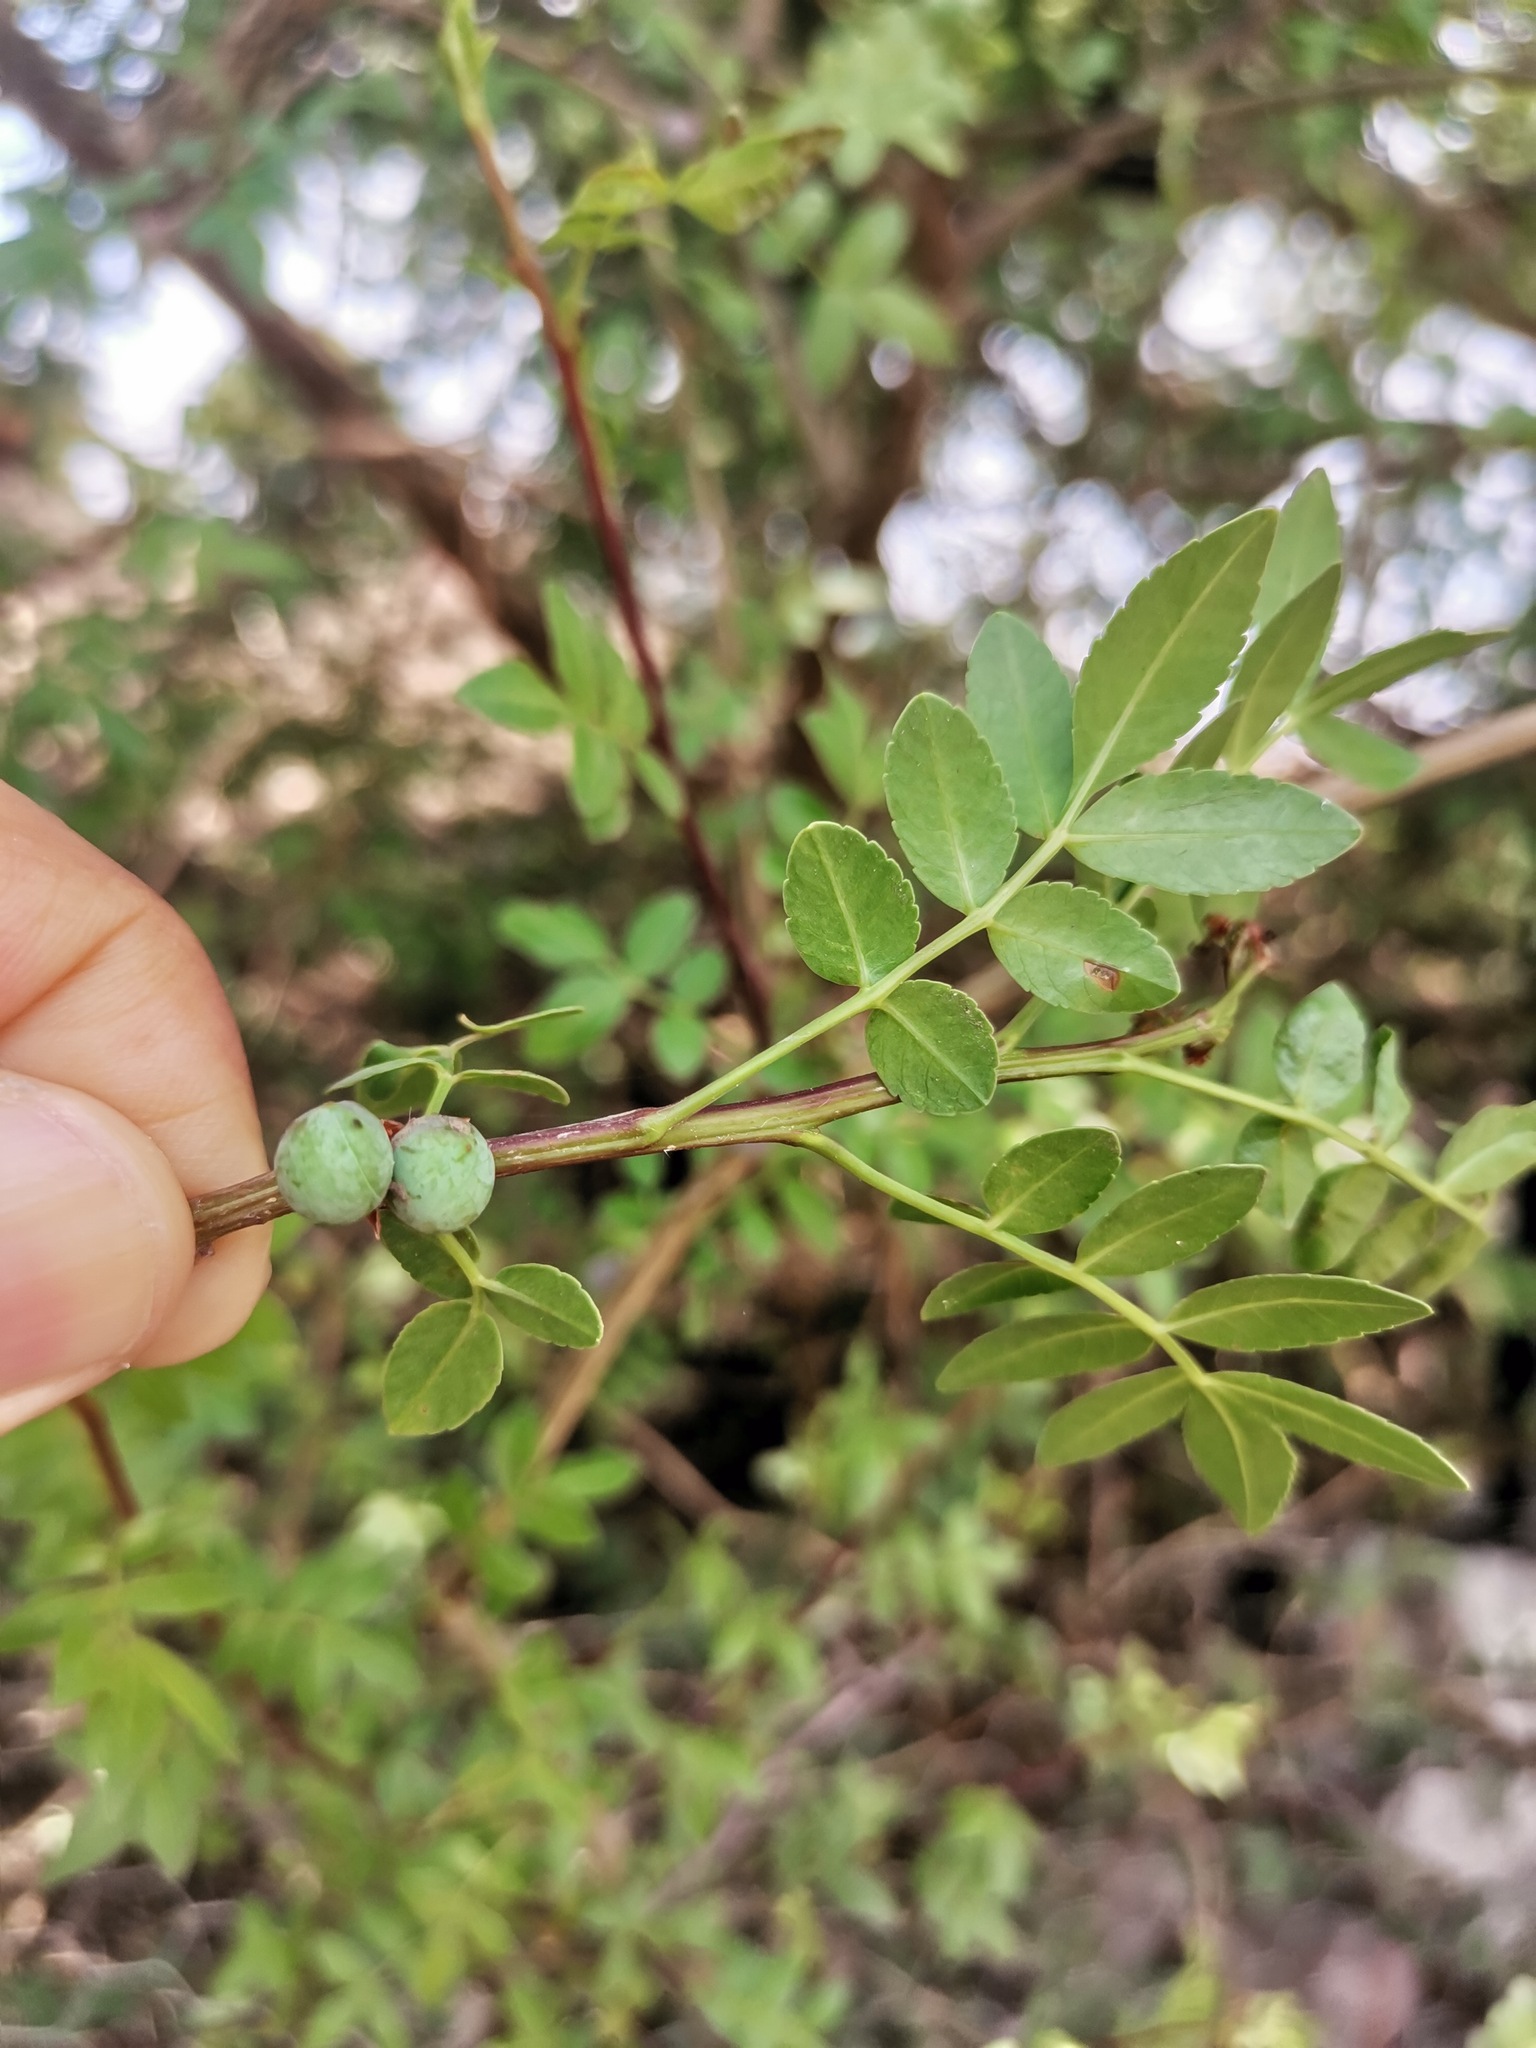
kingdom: Plantae
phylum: Tracheophyta
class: Magnoliopsida
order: Sapindales
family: Burseraceae
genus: Bursera
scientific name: Bursera fagaroides
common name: Elephant tree
